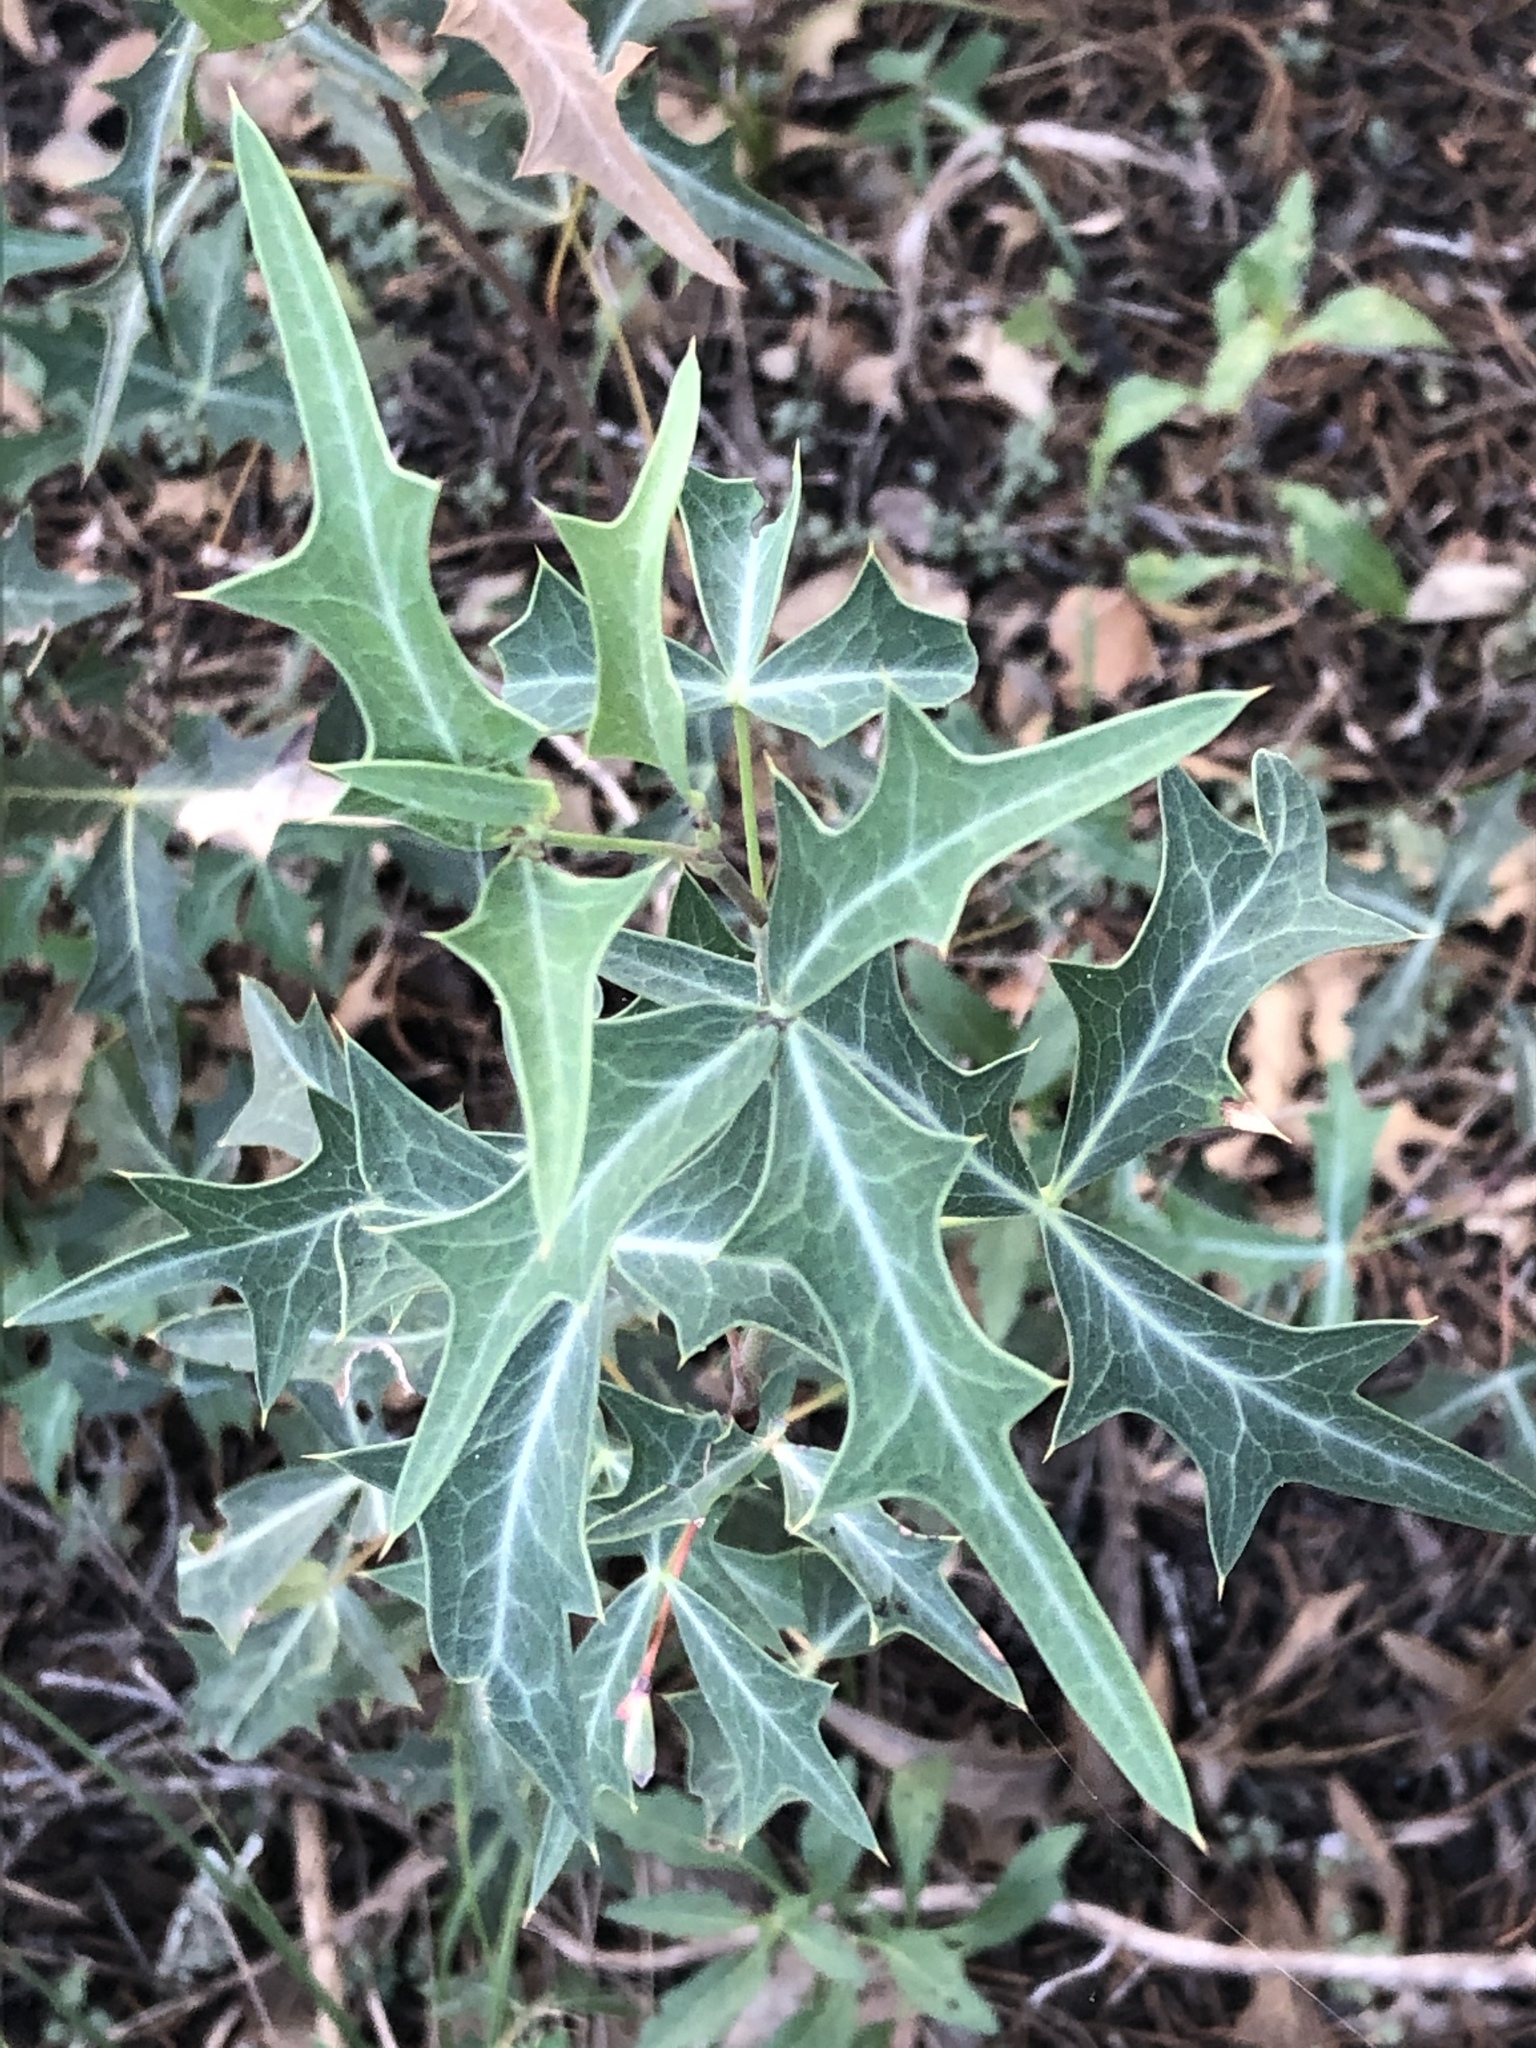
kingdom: Plantae
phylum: Tracheophyta
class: Magnoliopsida
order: Ranunculales
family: Berberidaceae
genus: Alloberberis
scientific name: Alloberberis trifoliolata
